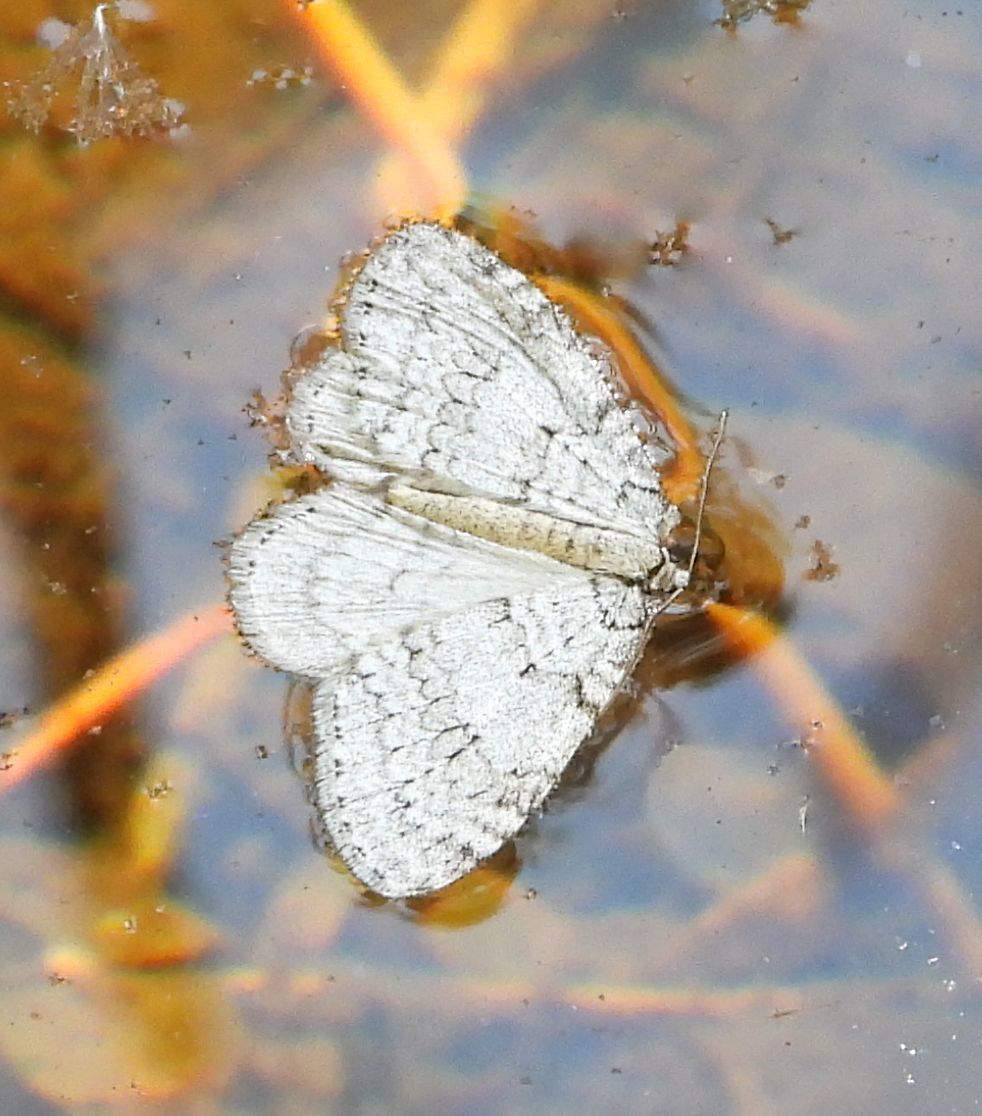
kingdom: Animalia
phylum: Arthropoda
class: Insecta
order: Lepidoptera
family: Geometridae
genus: Epirrita
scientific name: Epirrita autumnata
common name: Autumnal moth
